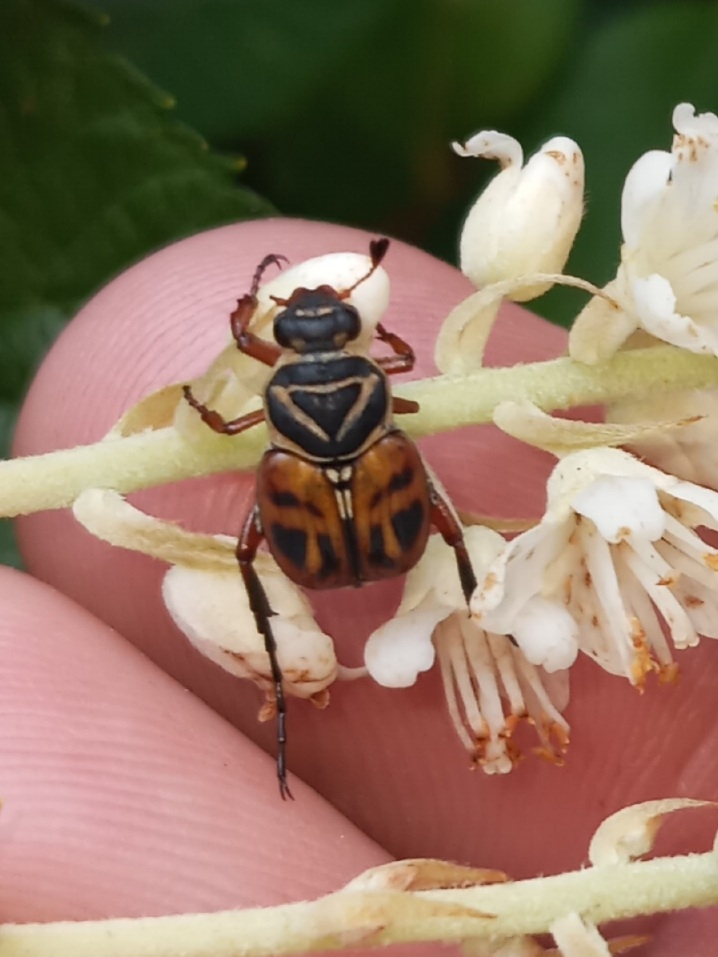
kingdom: Animalia
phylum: Arthropoda
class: Insecta
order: Coleoptera
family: Scarabaeidae
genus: Trigonopeltastes
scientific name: Trigonopeltastes delta
